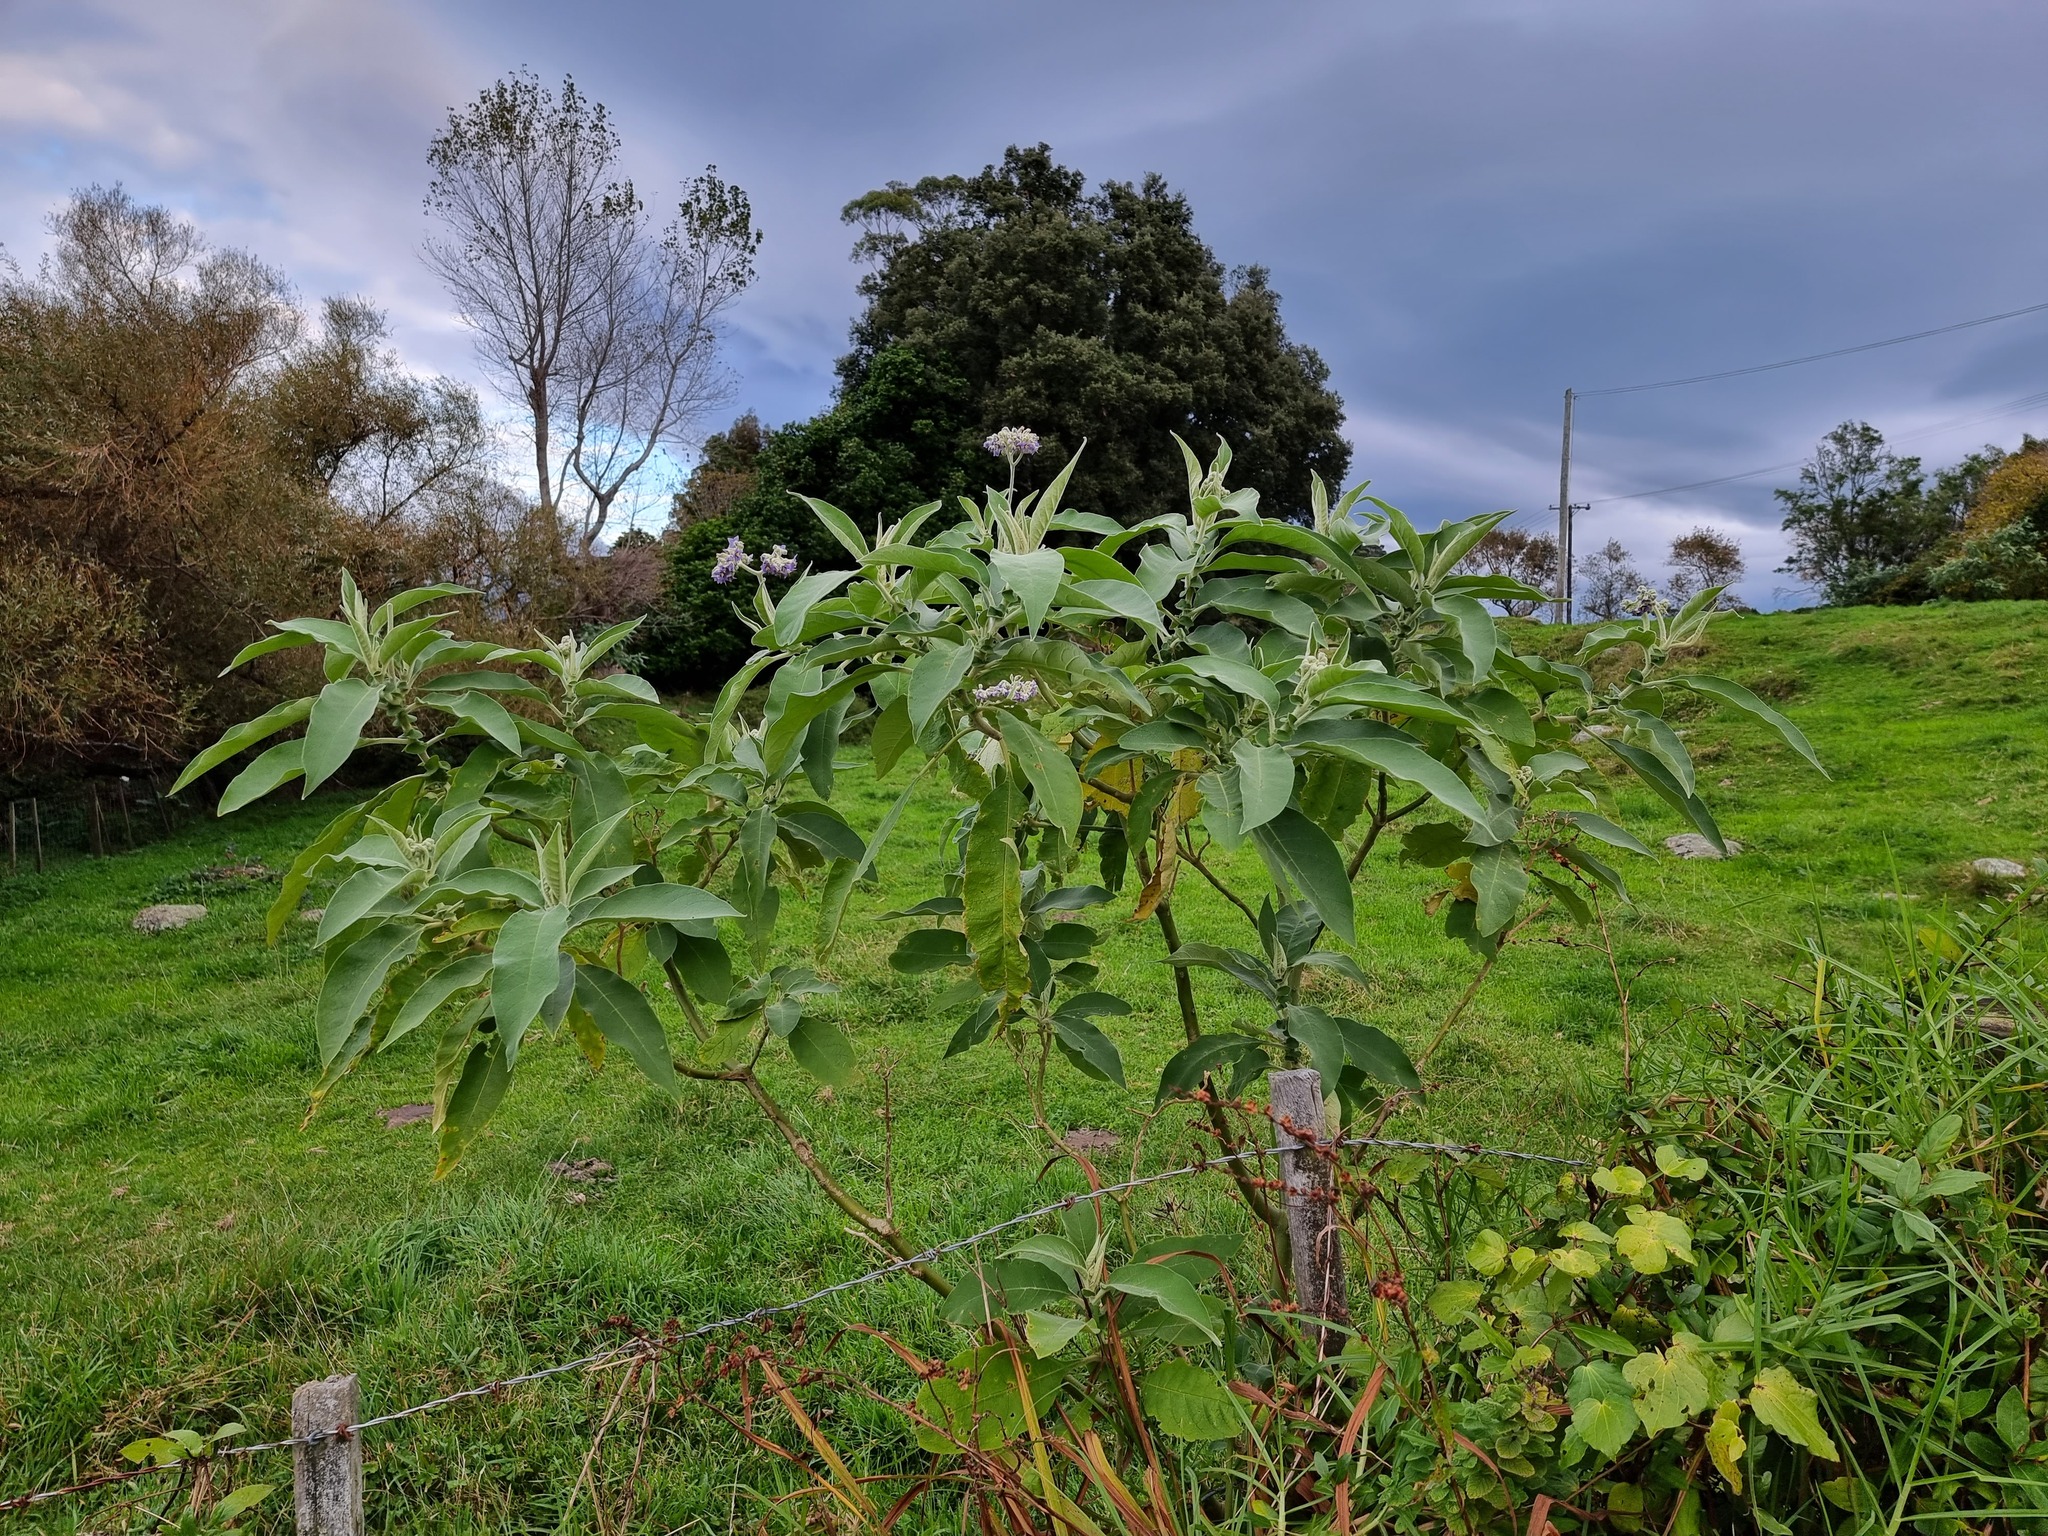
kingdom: Plantae
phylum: Tracheophyta
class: Magnoliopsida
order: Solanales
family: Solanaceae
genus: Solanum
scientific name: Solanum mauritianum
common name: Earleaf nightshade
